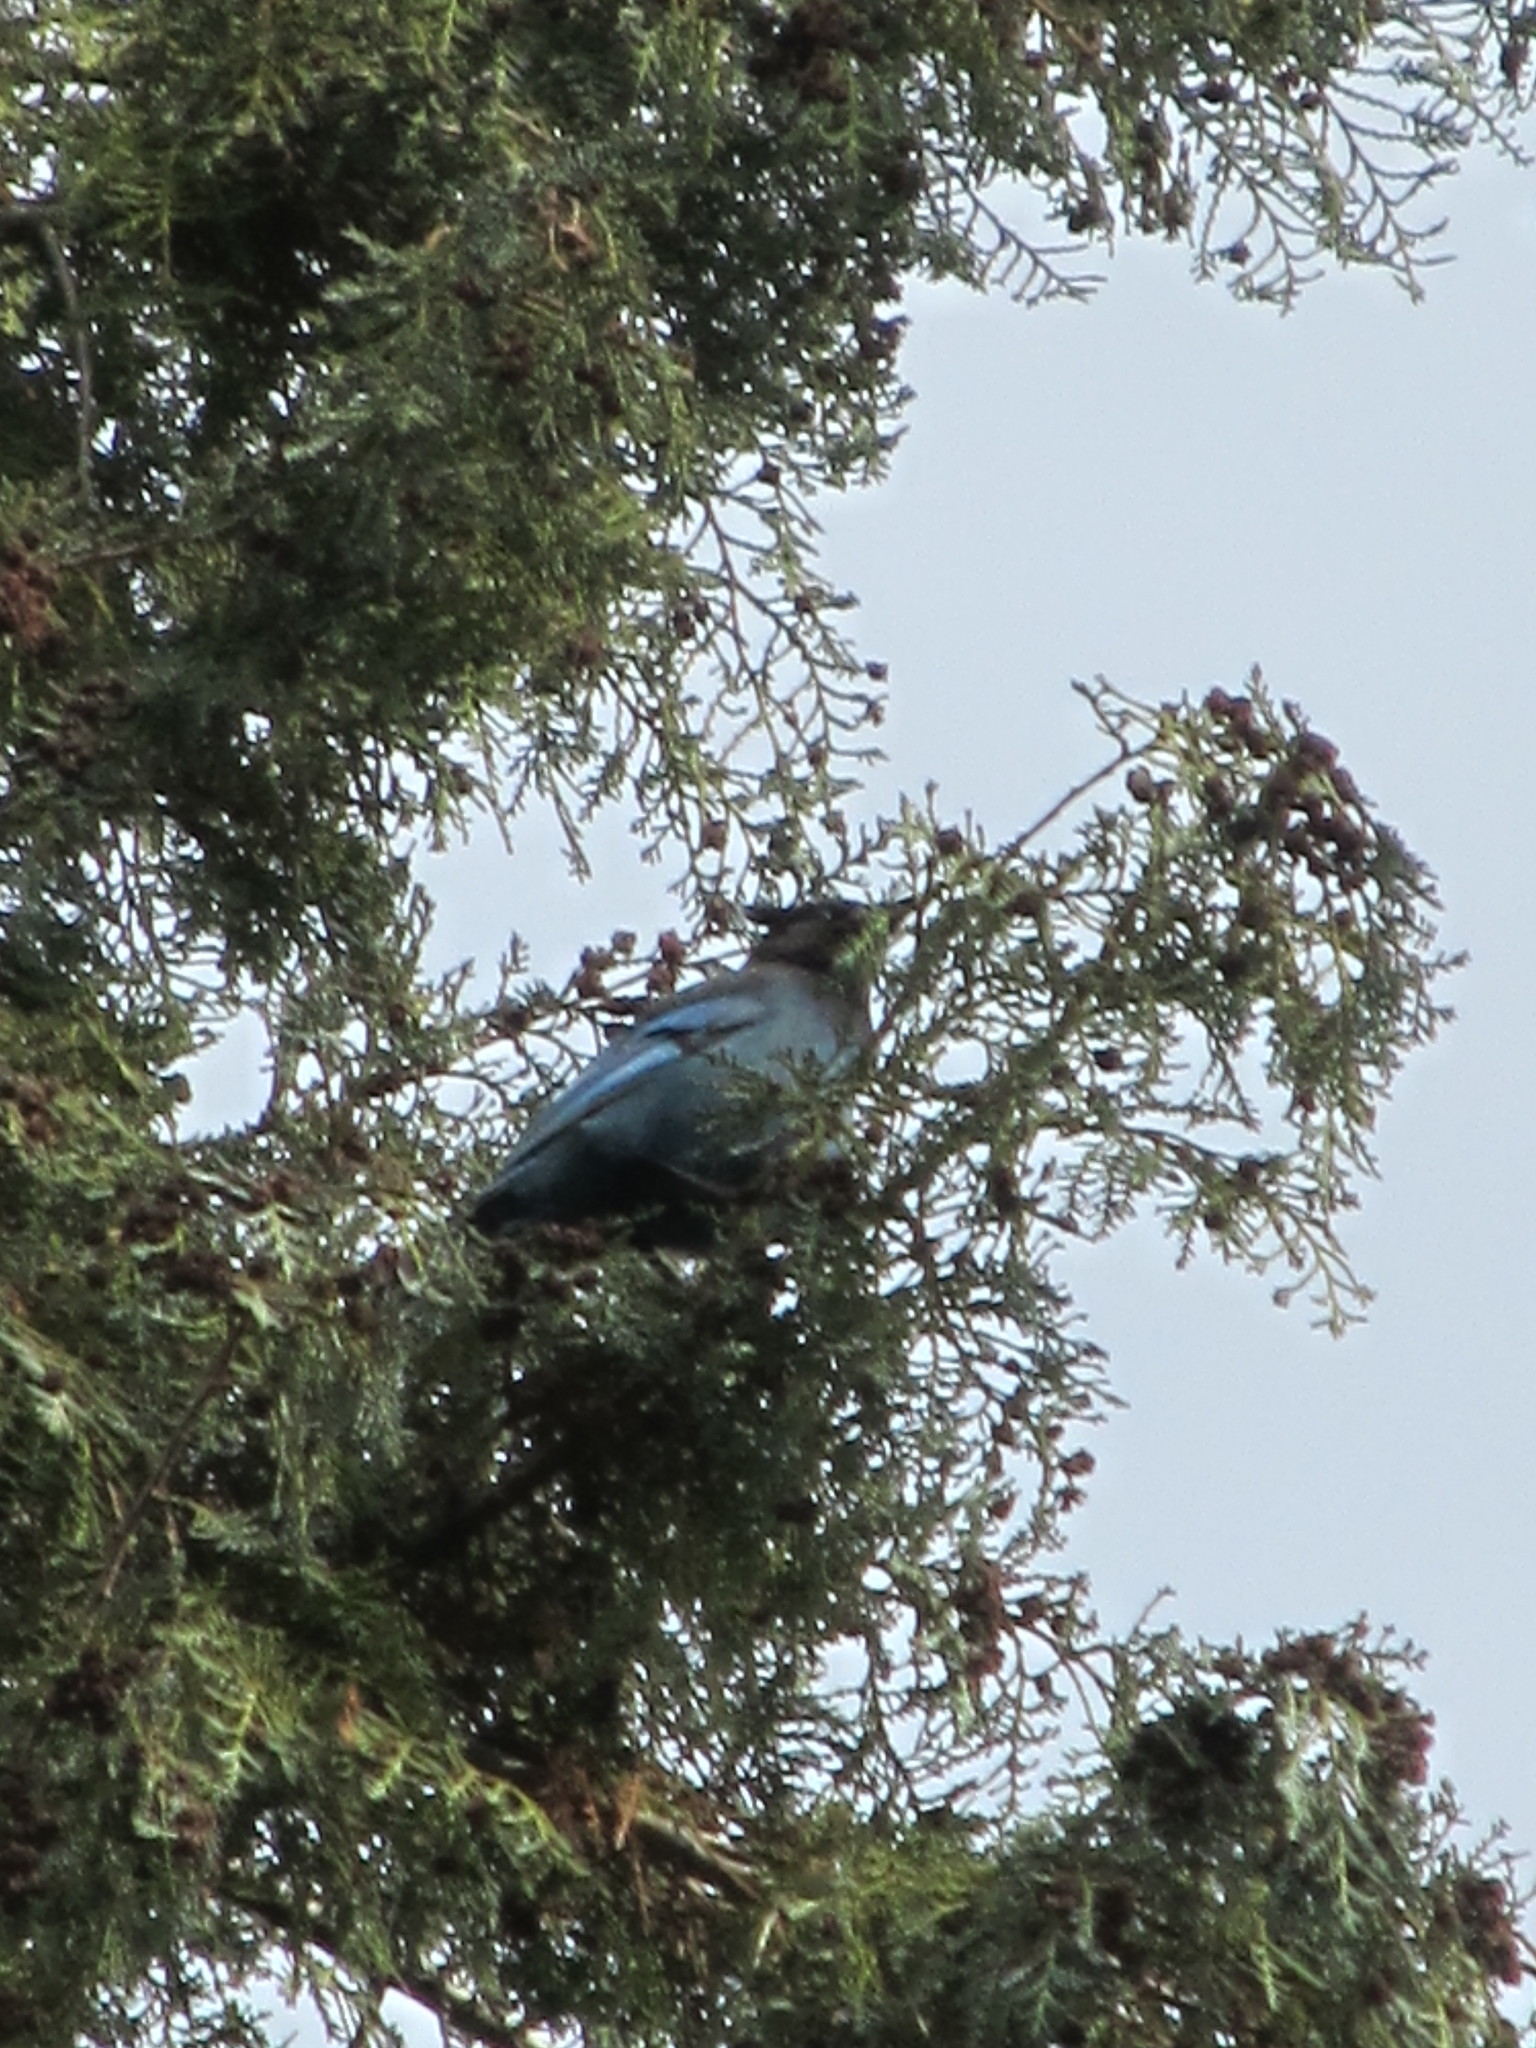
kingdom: Animalia
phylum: Chordata
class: Aves
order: Passeriformes
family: Corvidae
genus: Cyanocitta
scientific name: Cyanocitta stelleri
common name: Steller's jay
